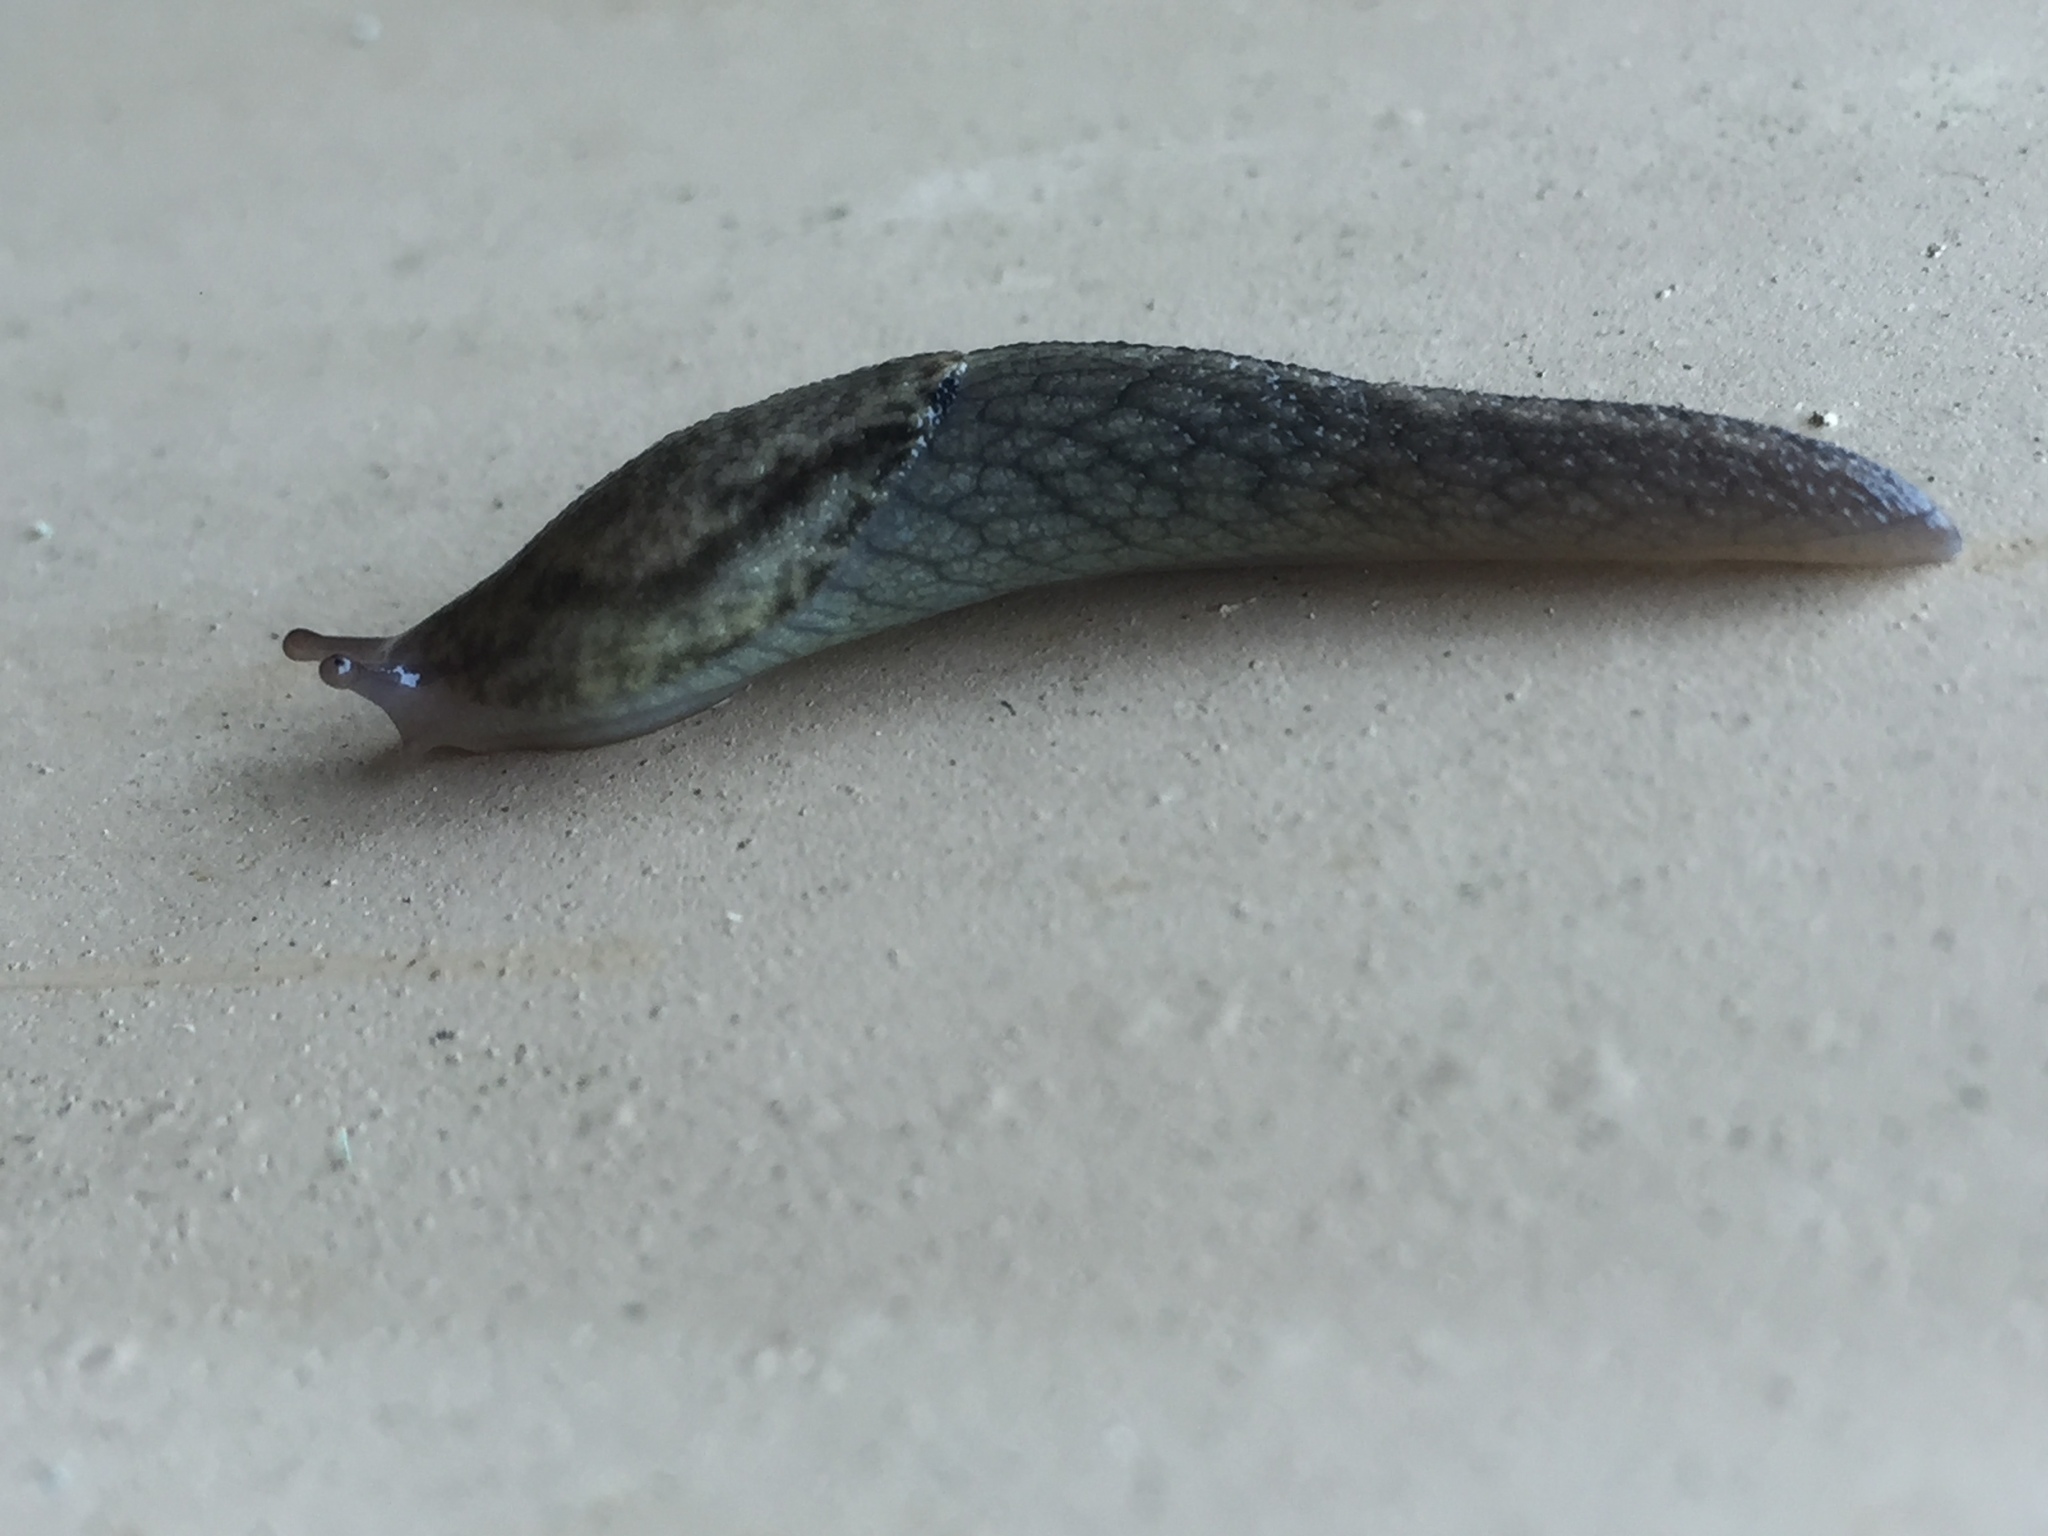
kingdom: Animalia
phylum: Mollusca
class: Gastropoda
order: Stylommatophora
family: Ariolimacidae
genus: Prophysaon
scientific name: Prophysaon andersonii
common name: Reticulate taildropper
